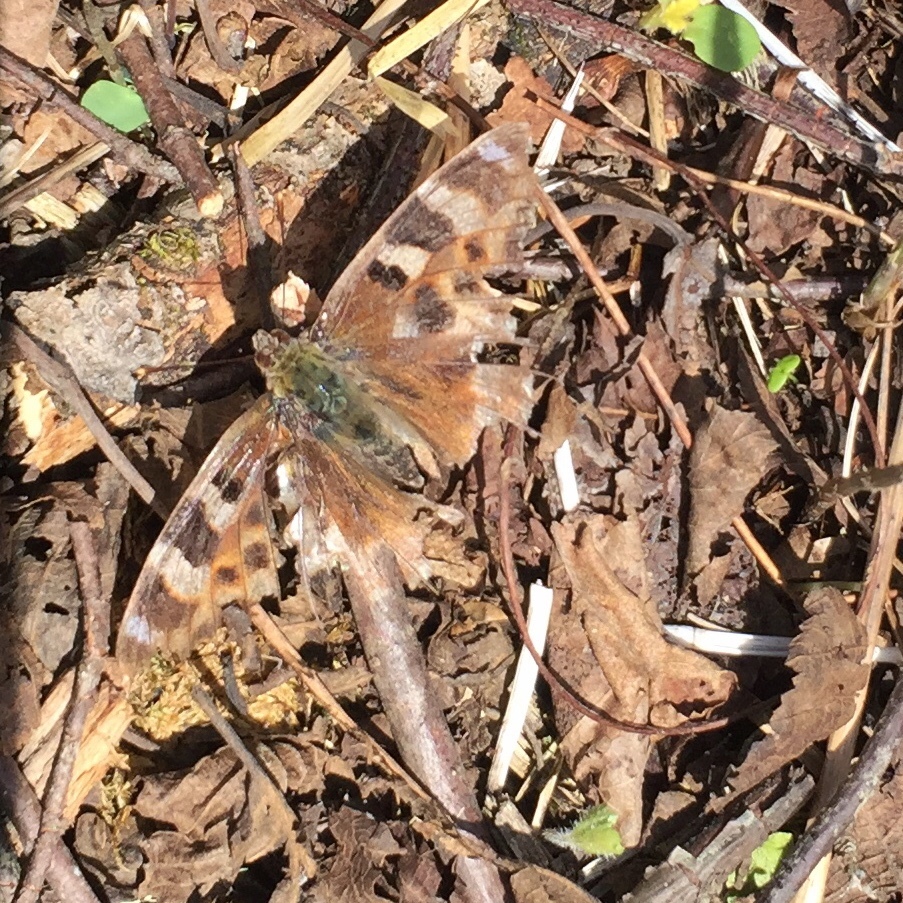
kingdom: Animalia
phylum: Arthropoda
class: Insecta
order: Lepidoptera
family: Nymphalidae
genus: Polygonia
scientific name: Polygonia vaualbum
